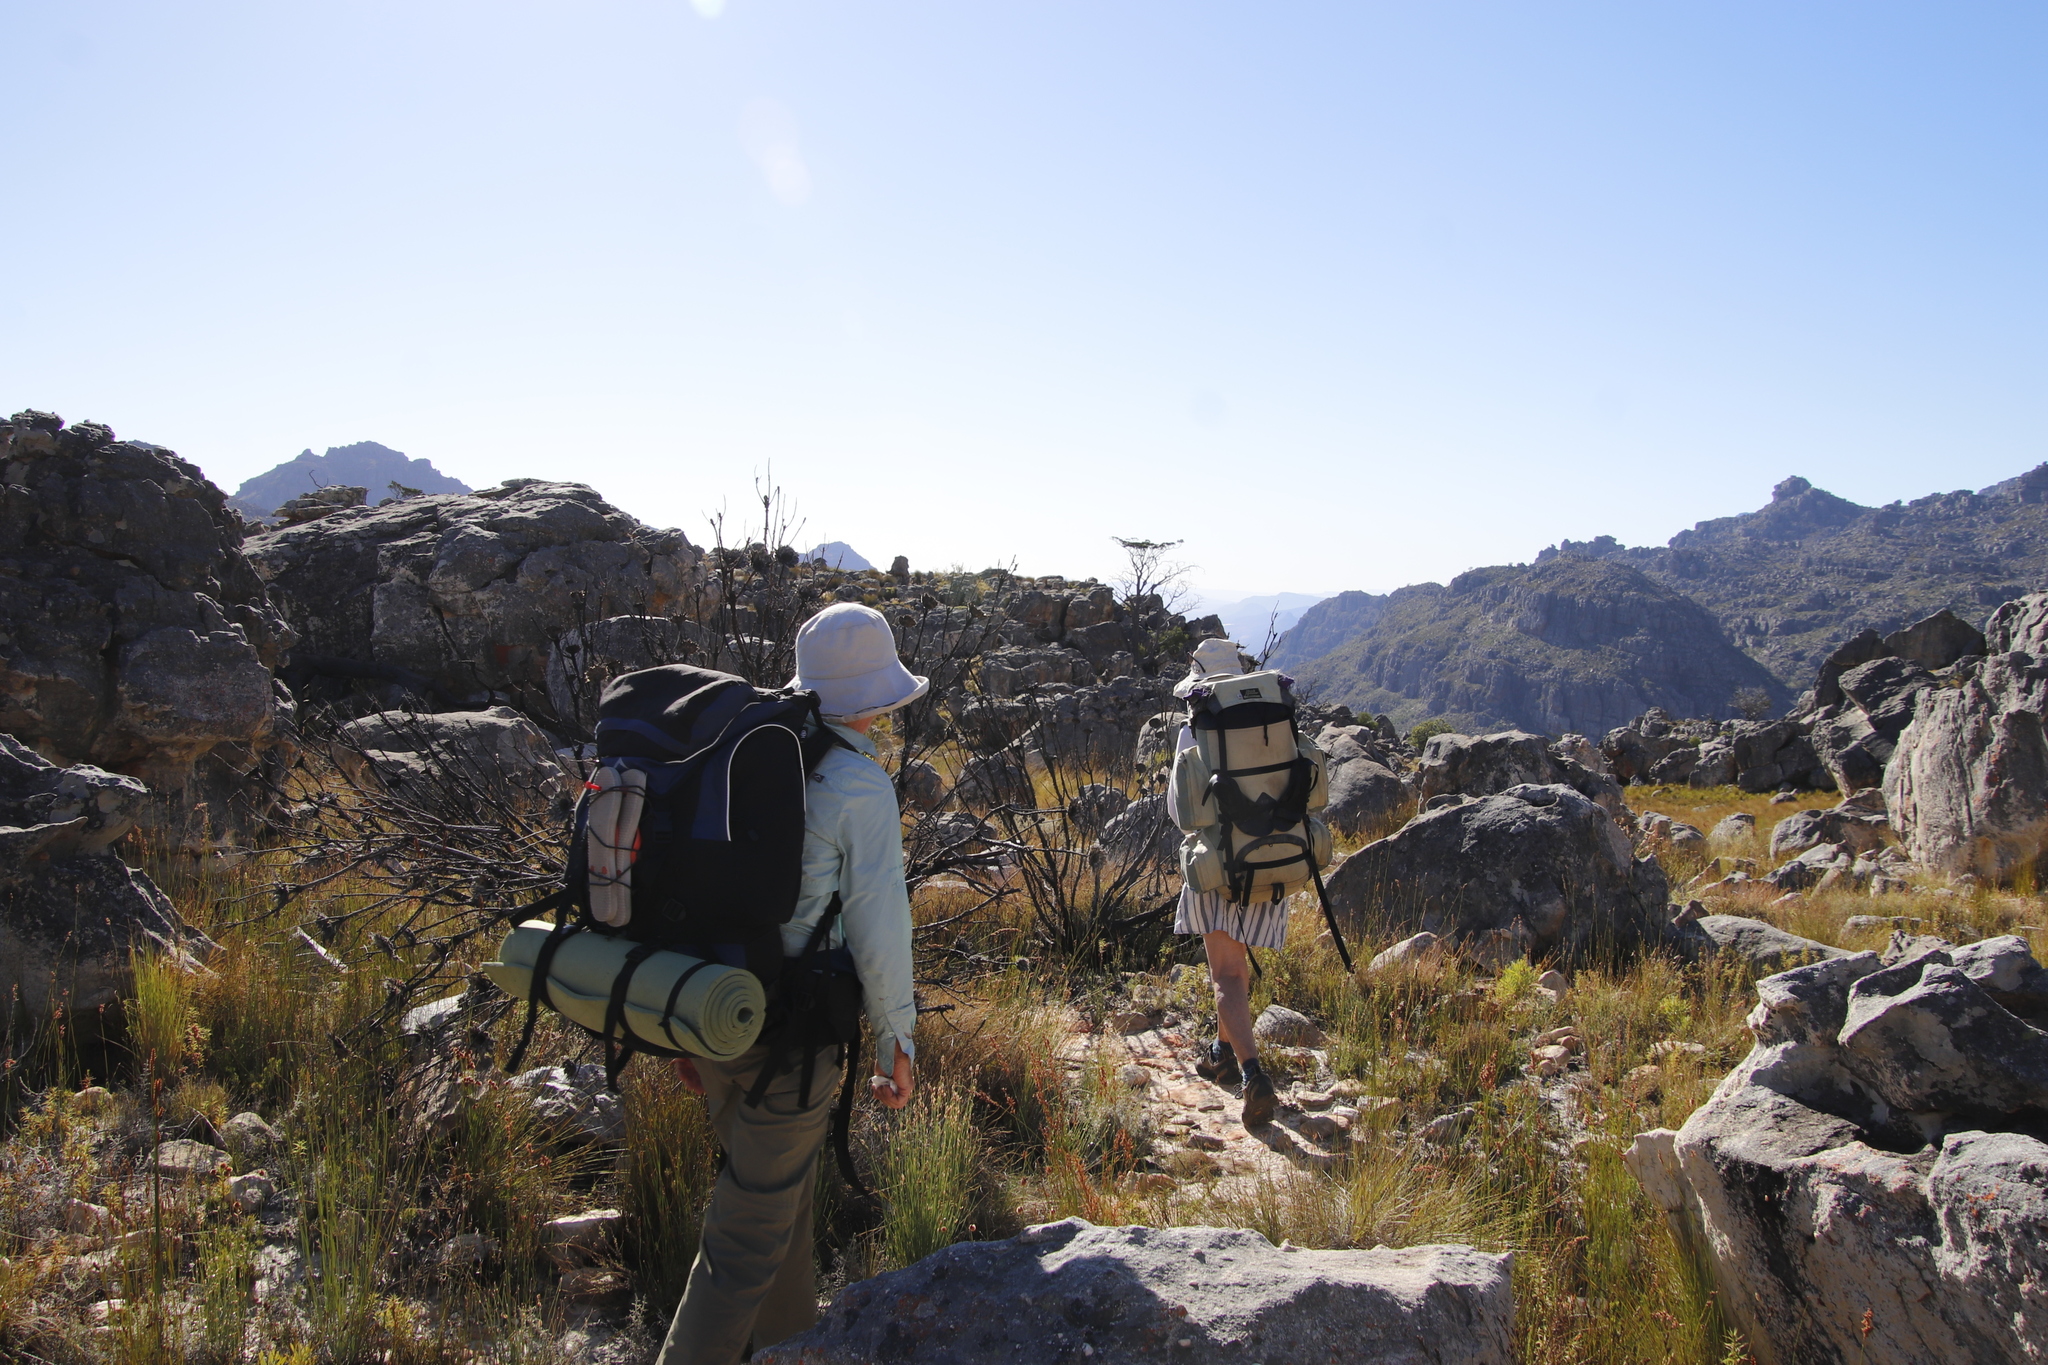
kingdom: Plantae
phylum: Tracheophyta
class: Pinopsida
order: Pinales
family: Cupressaceae
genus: Widdringtonia
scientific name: Widdringtonia nodiflora
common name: Cape cypress
